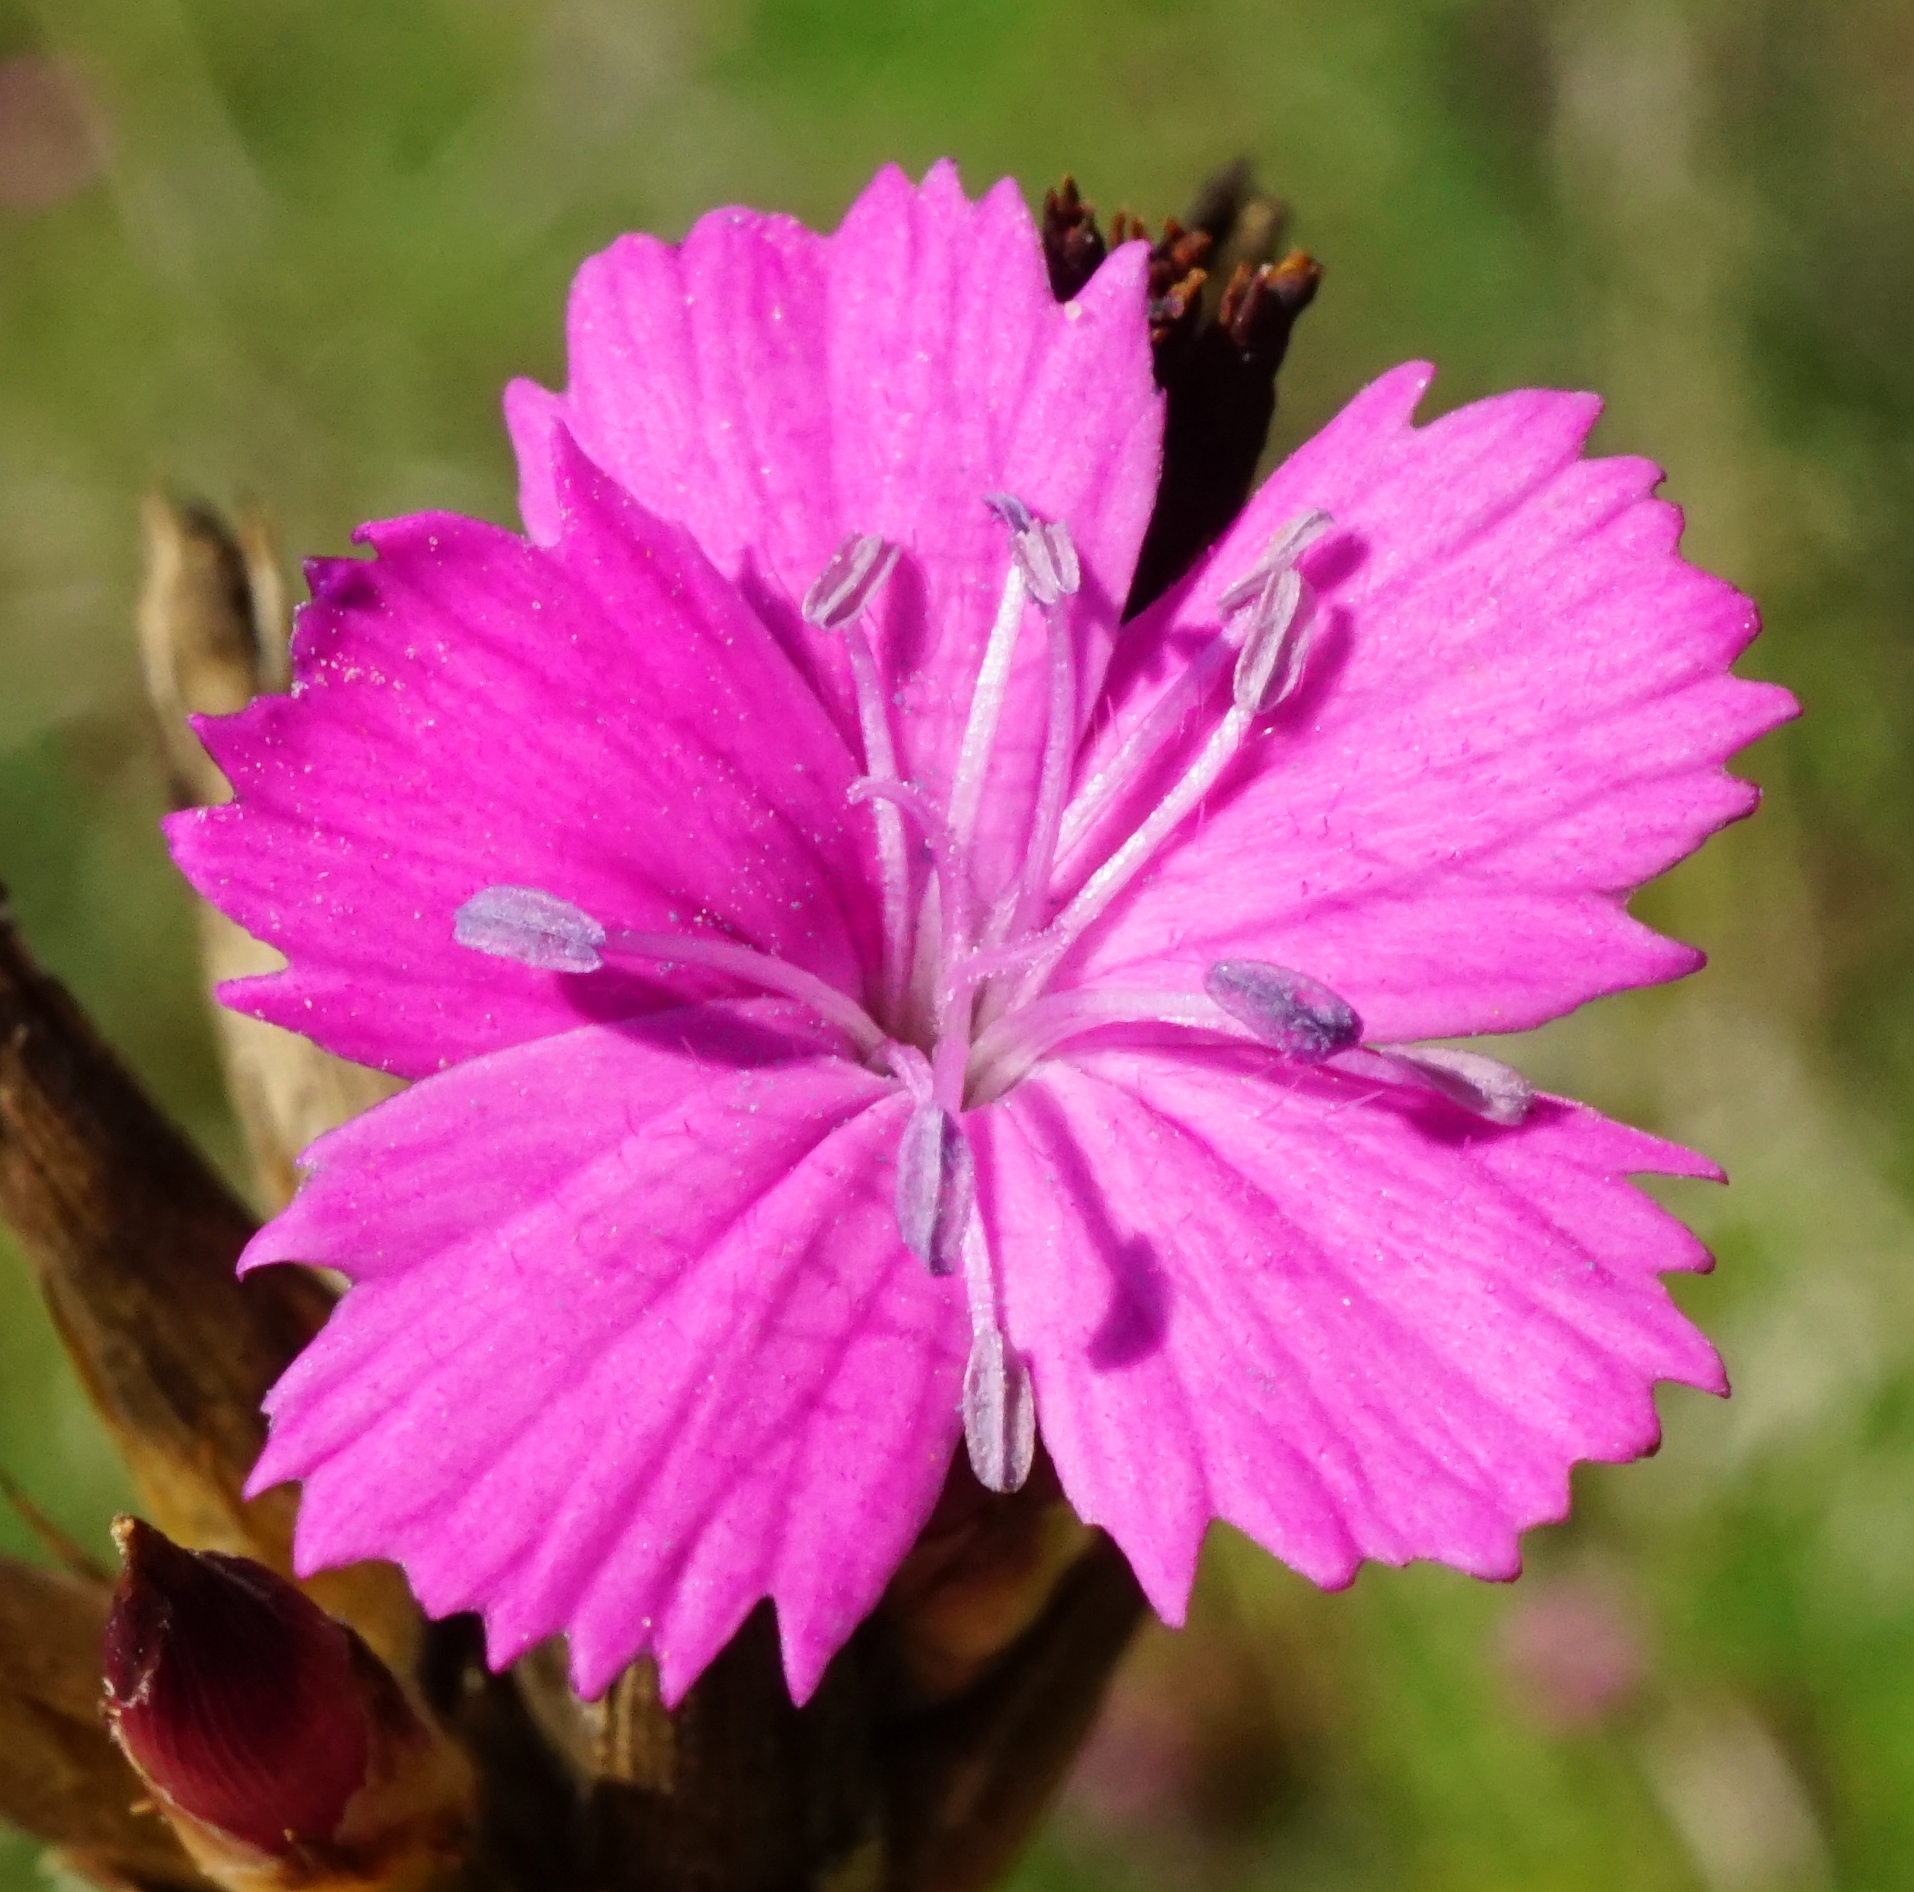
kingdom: Plantae
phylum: Tracheophyta
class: Magnoliopsida
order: Caryophyllales
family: Caryophyllaceae
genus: Dianthus
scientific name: Dianthus giganteus
